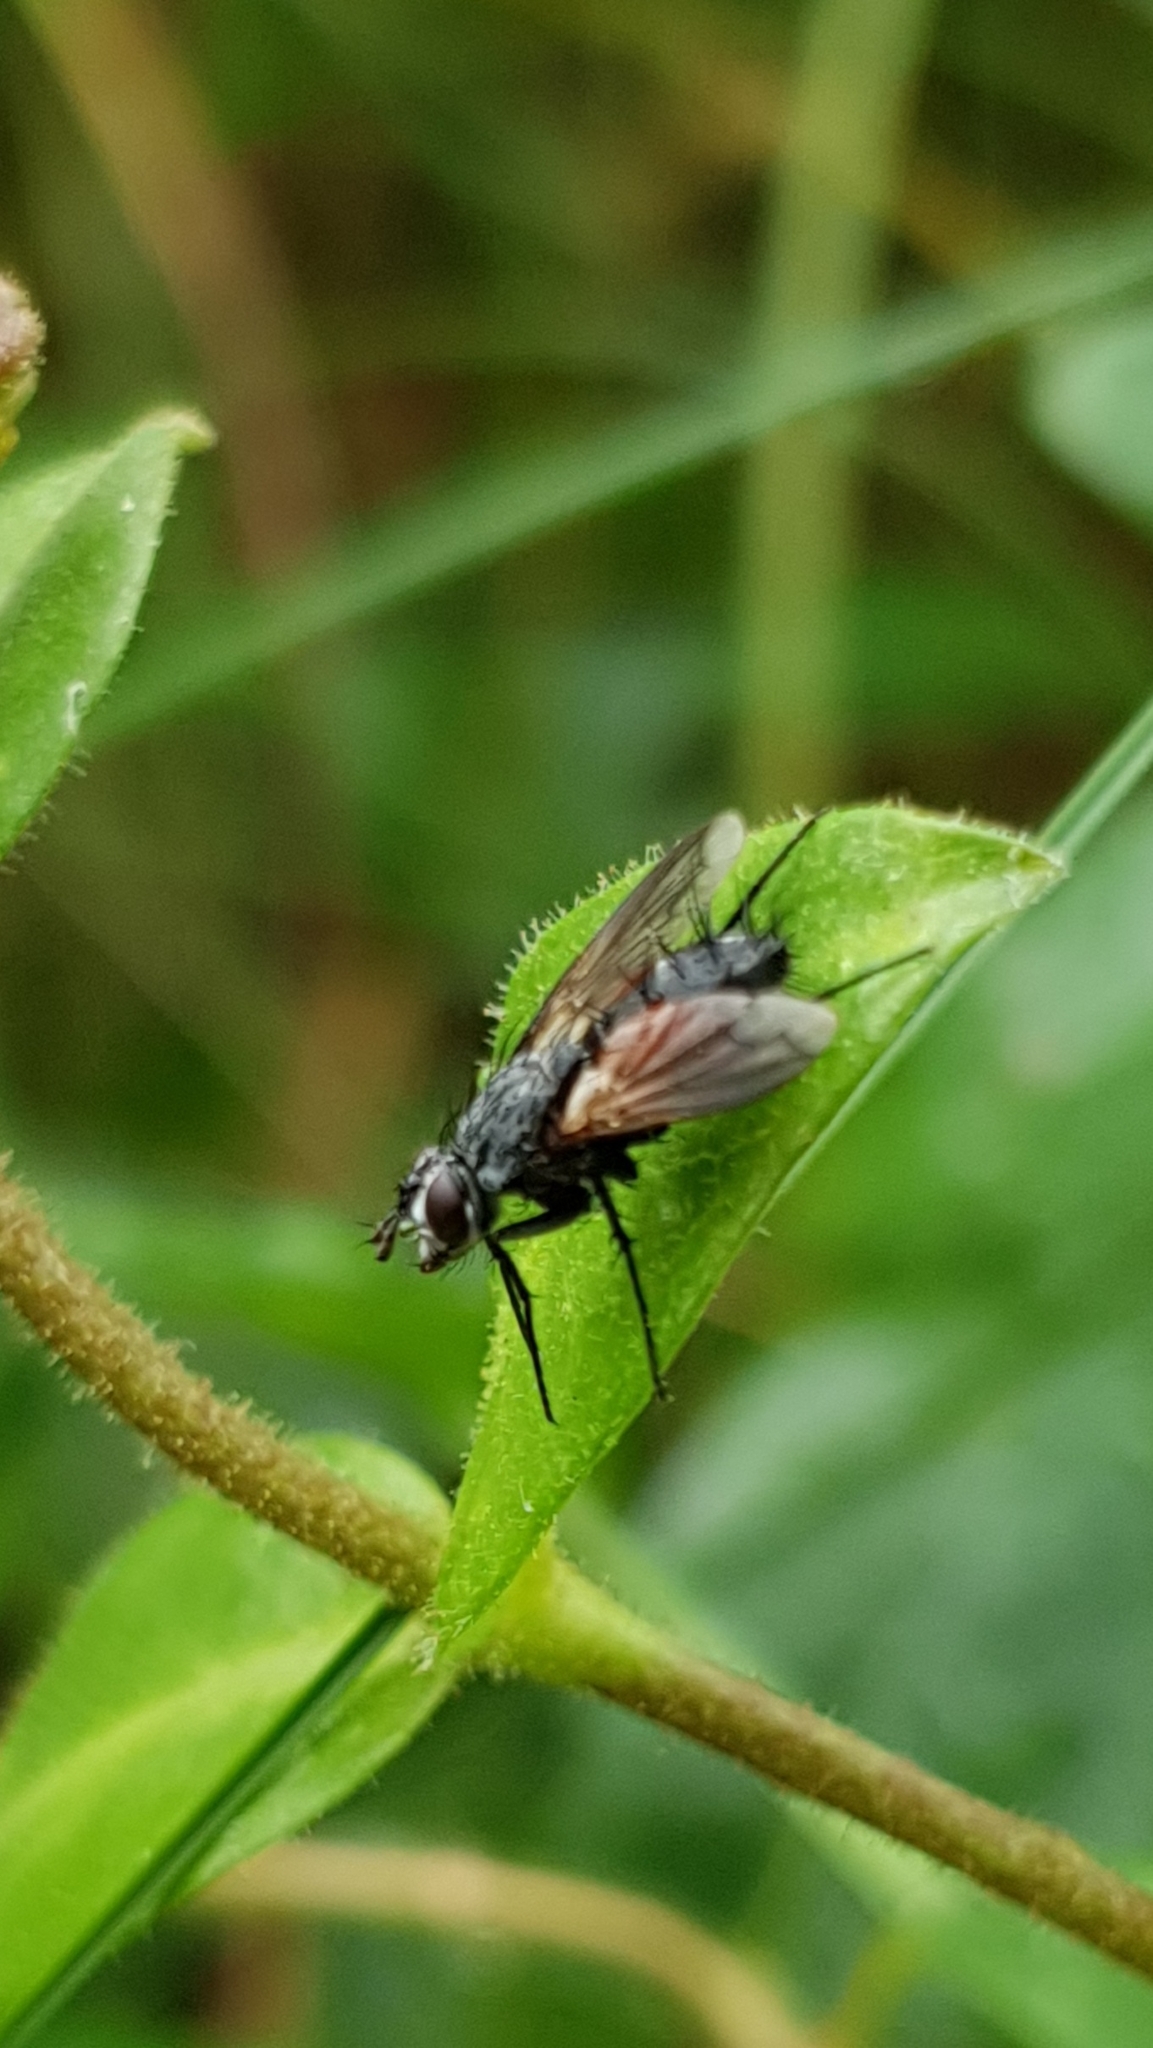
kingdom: Animalia
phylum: Arthropoda
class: Insecta
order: Diptera
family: Tachinidae
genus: Eriothrix
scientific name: Eriothrix rufomaculatus
